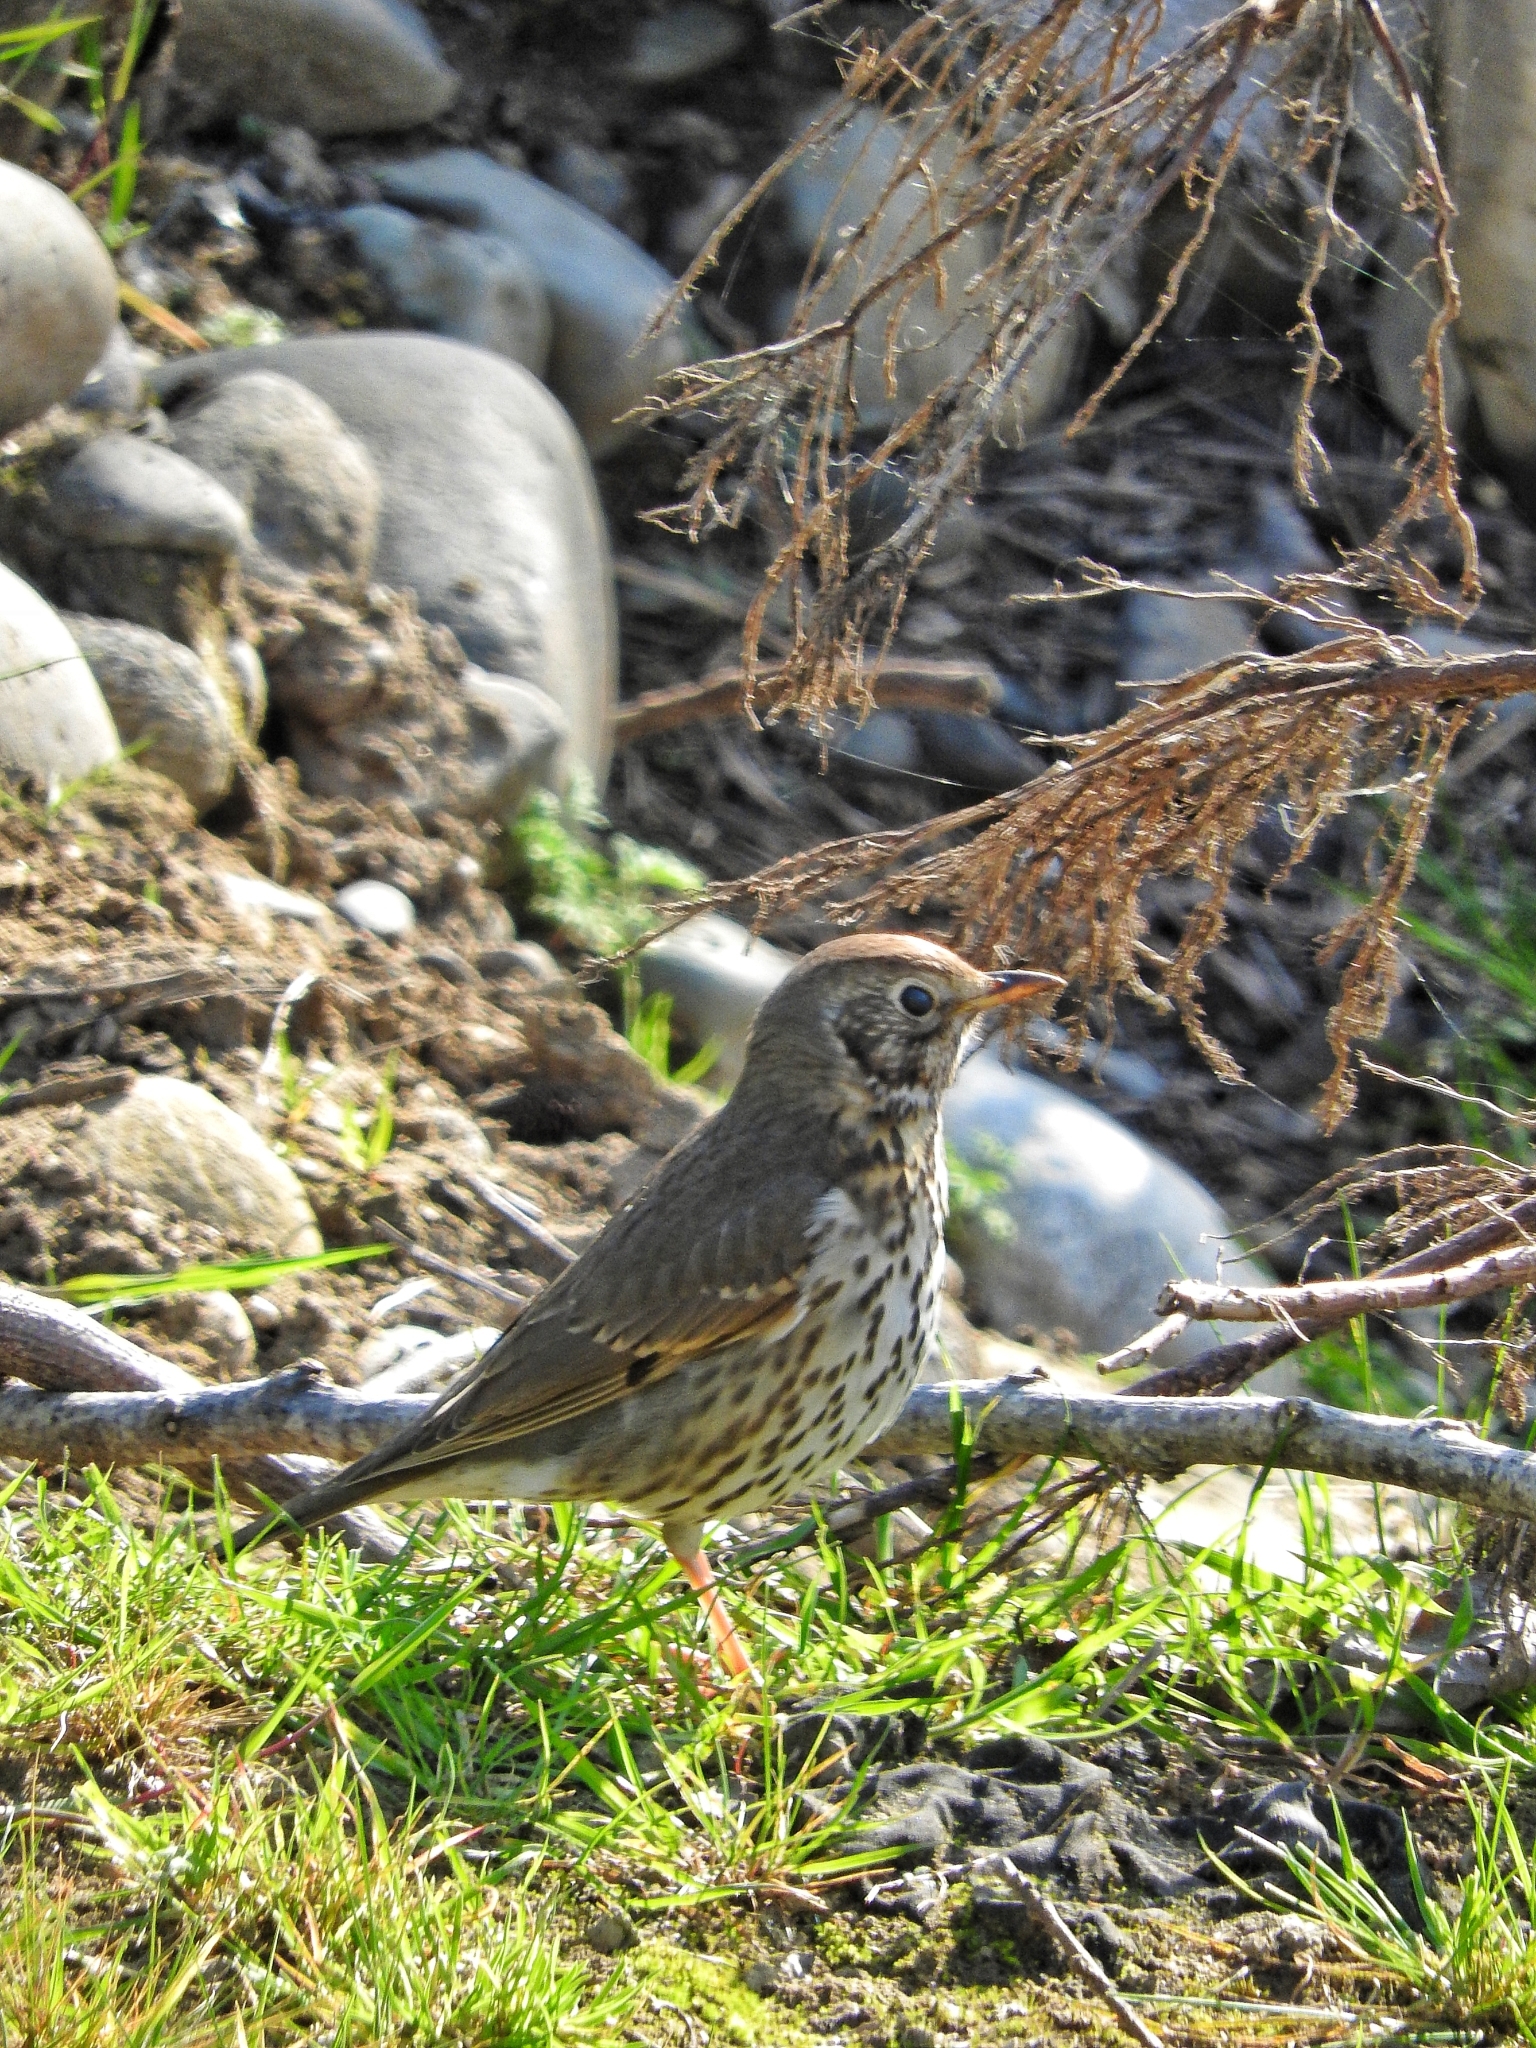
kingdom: Animalia
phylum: Chordata
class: Aves
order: Passeriformes
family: Turdidae
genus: Turdus
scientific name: Turdus philomelos
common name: Song thrush
